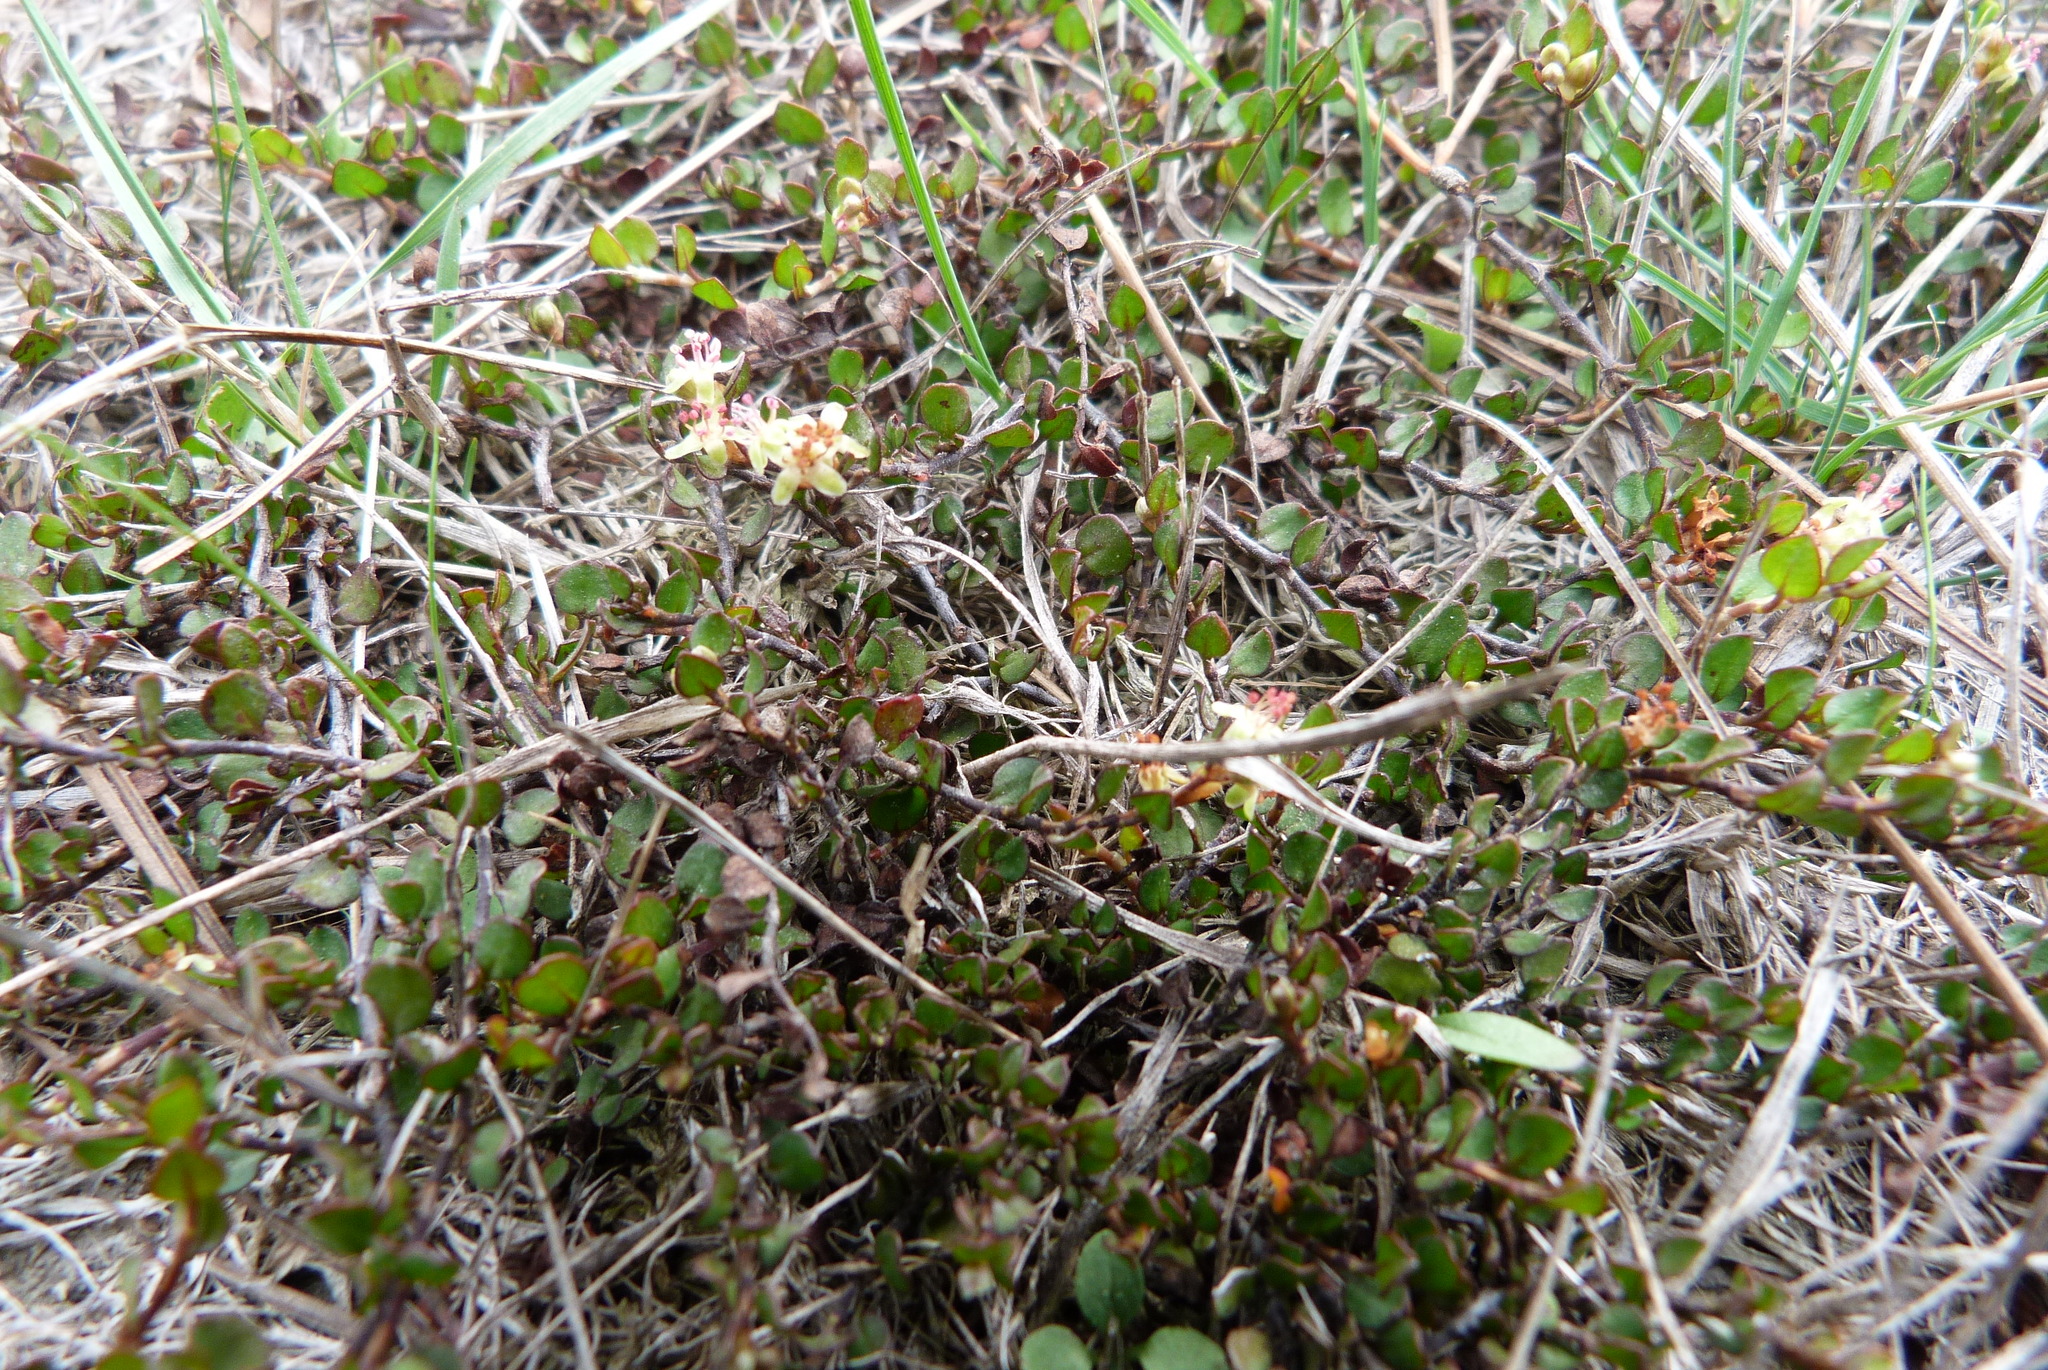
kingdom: Plantae
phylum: Tracheophyta
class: Magnoliopsida
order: Caryophyllales
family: Polygonaceae
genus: Muehlenbeckia
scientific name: Muehlenbeckia axillaris
